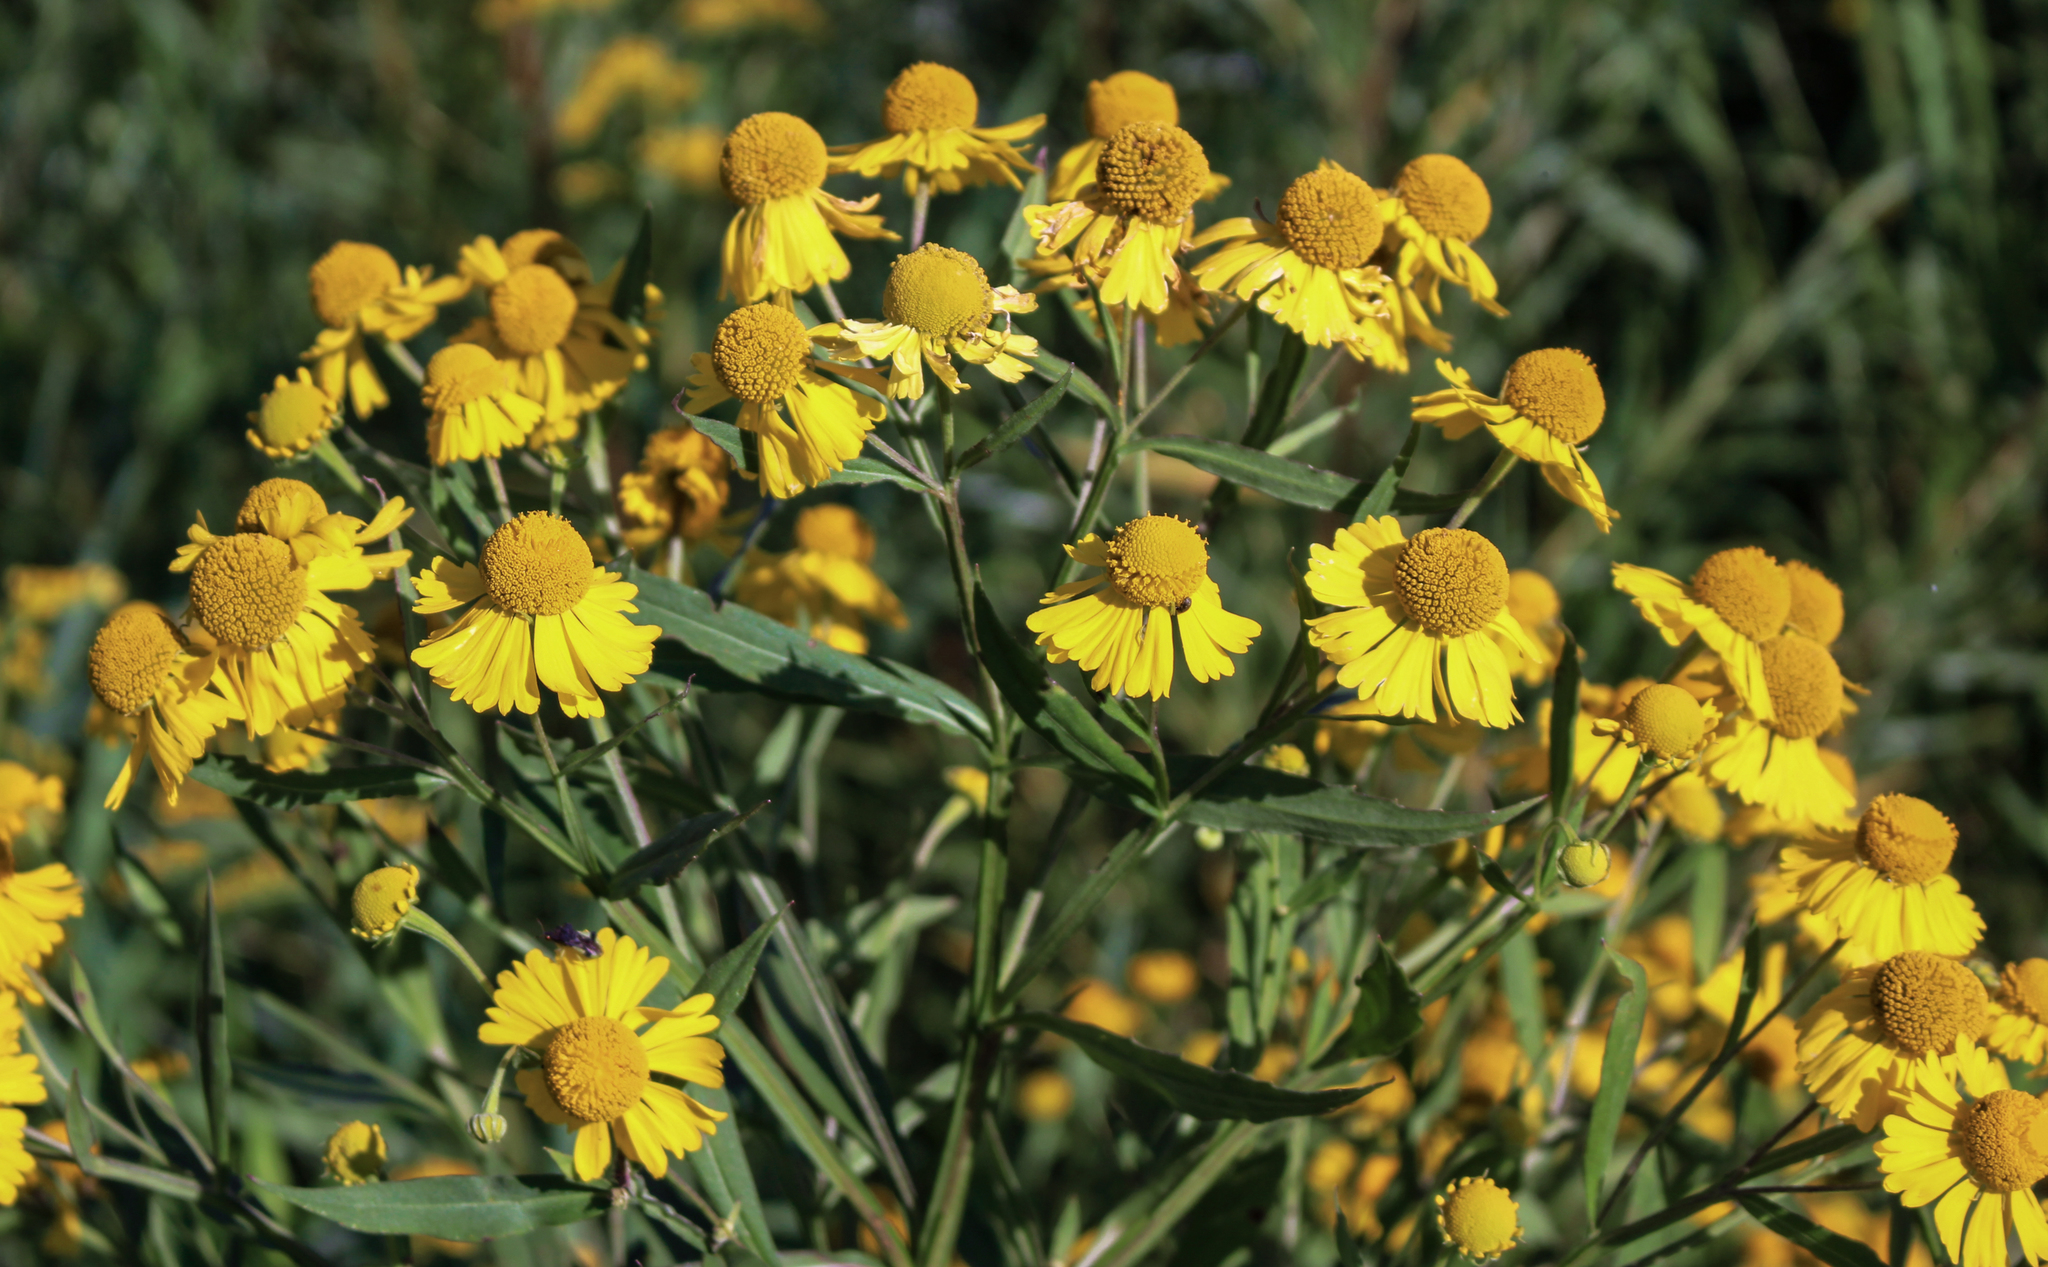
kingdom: Plantae
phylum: Tracheophyta
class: Magnoliopsida
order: Asterales
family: Asteraceae
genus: Helenium
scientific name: Helenium autumnale
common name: Sneezeweed
